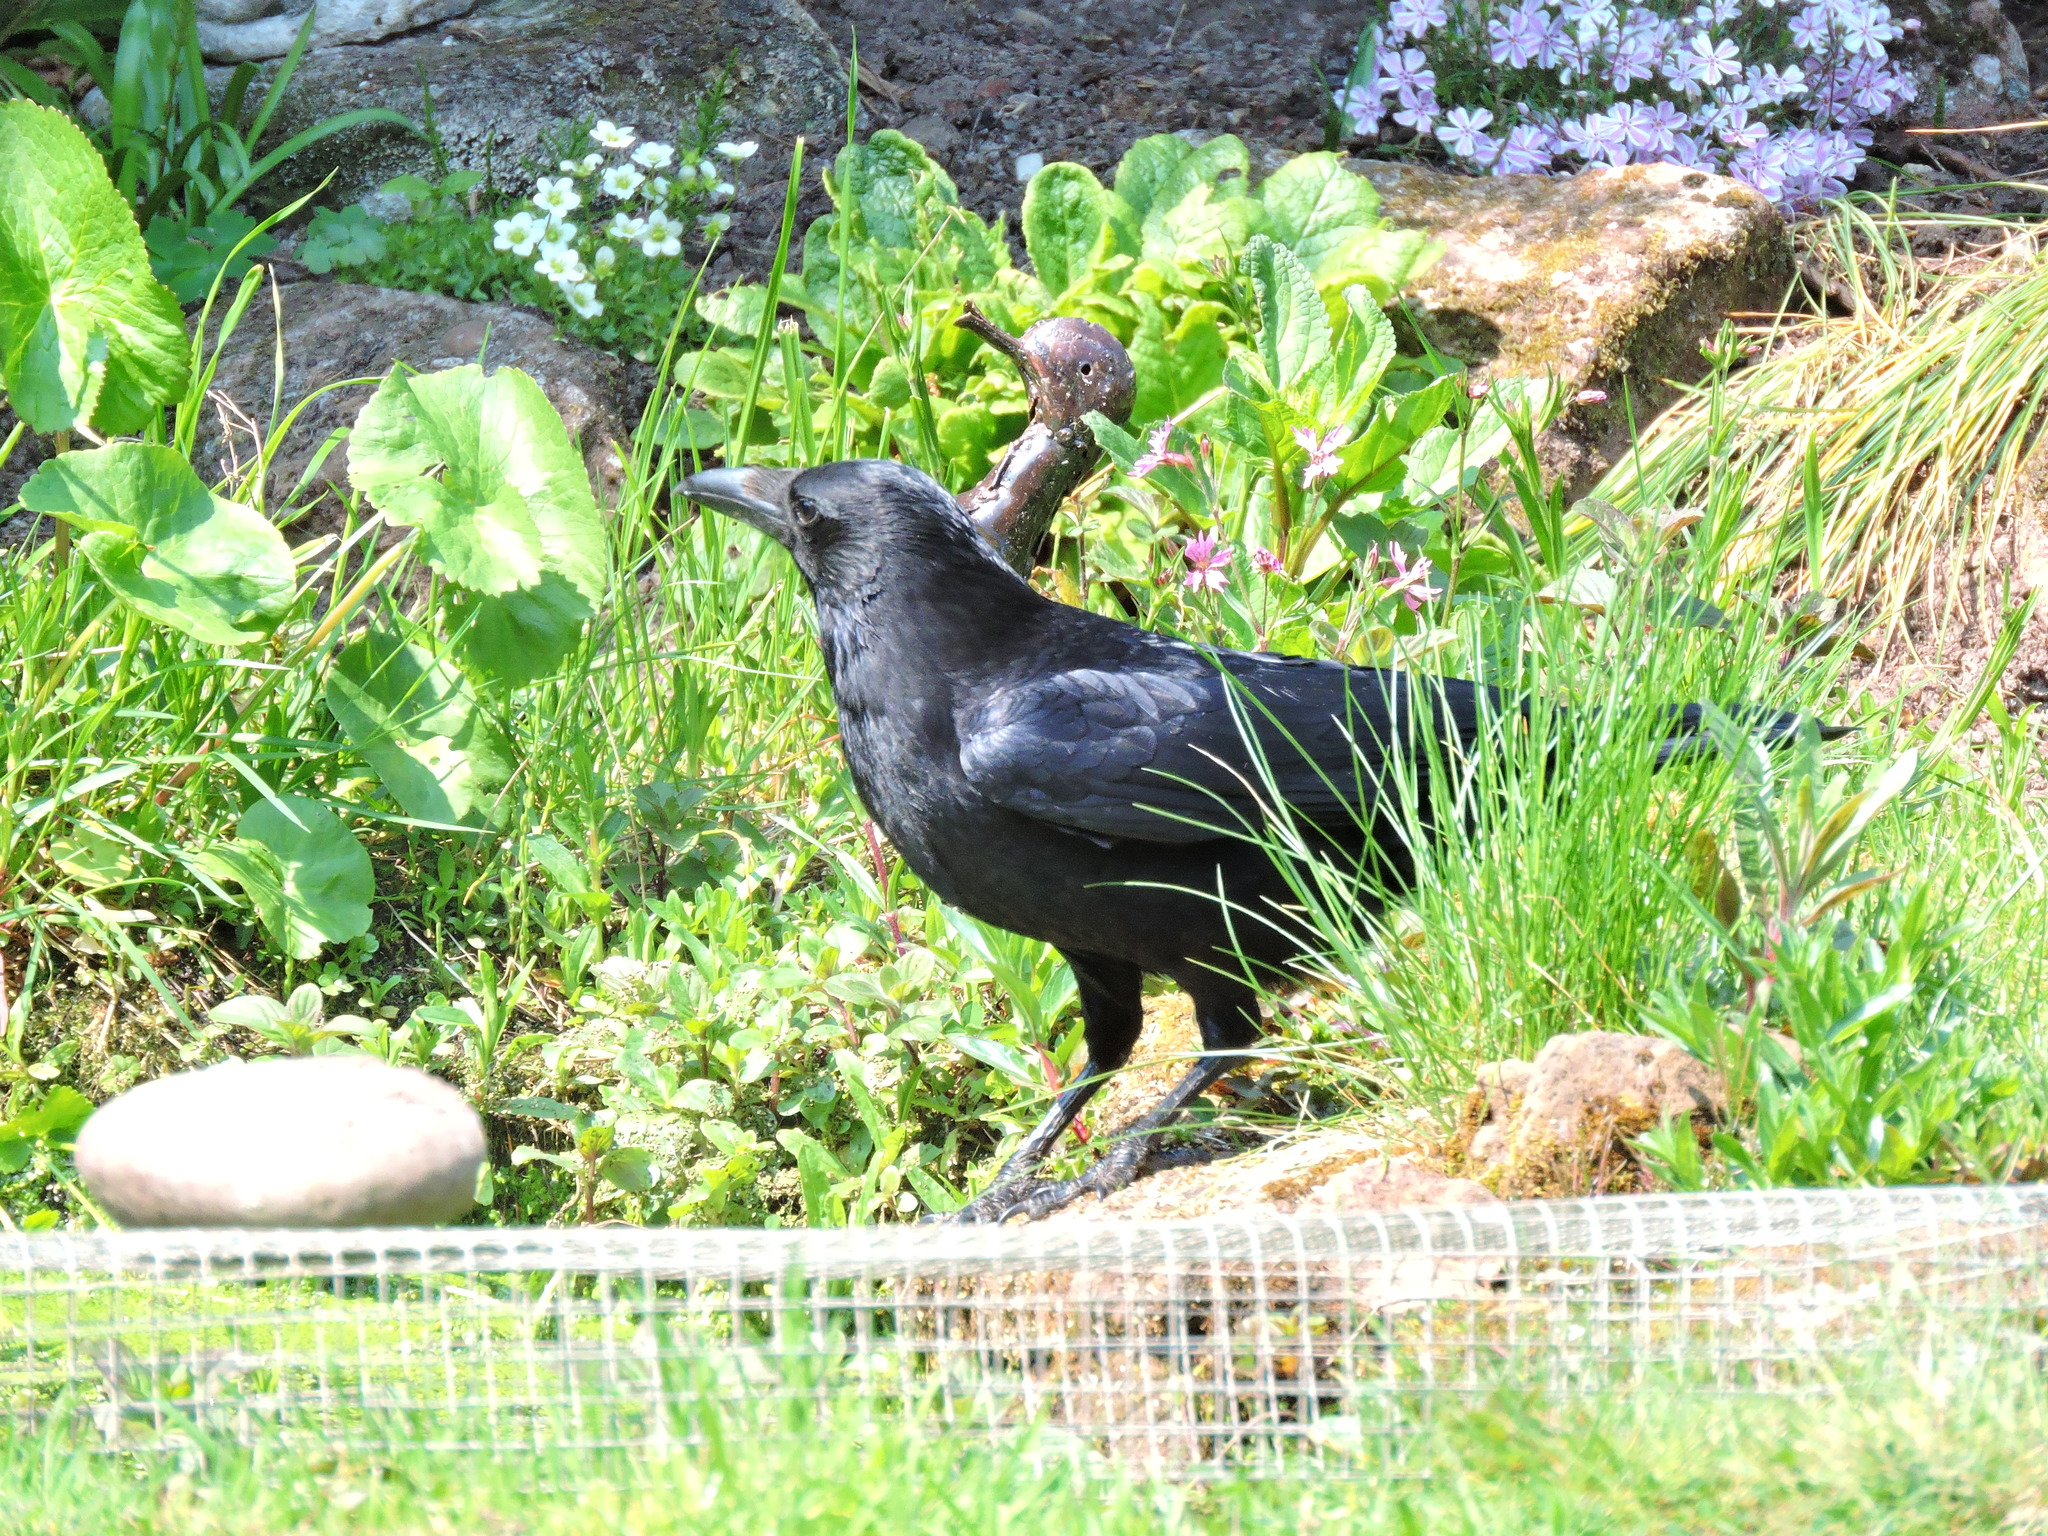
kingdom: Animalia
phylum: Chordata
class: Aves
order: Passeriformes
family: Corvidae
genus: Corvus
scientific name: Corvus corone
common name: Carrion crow
